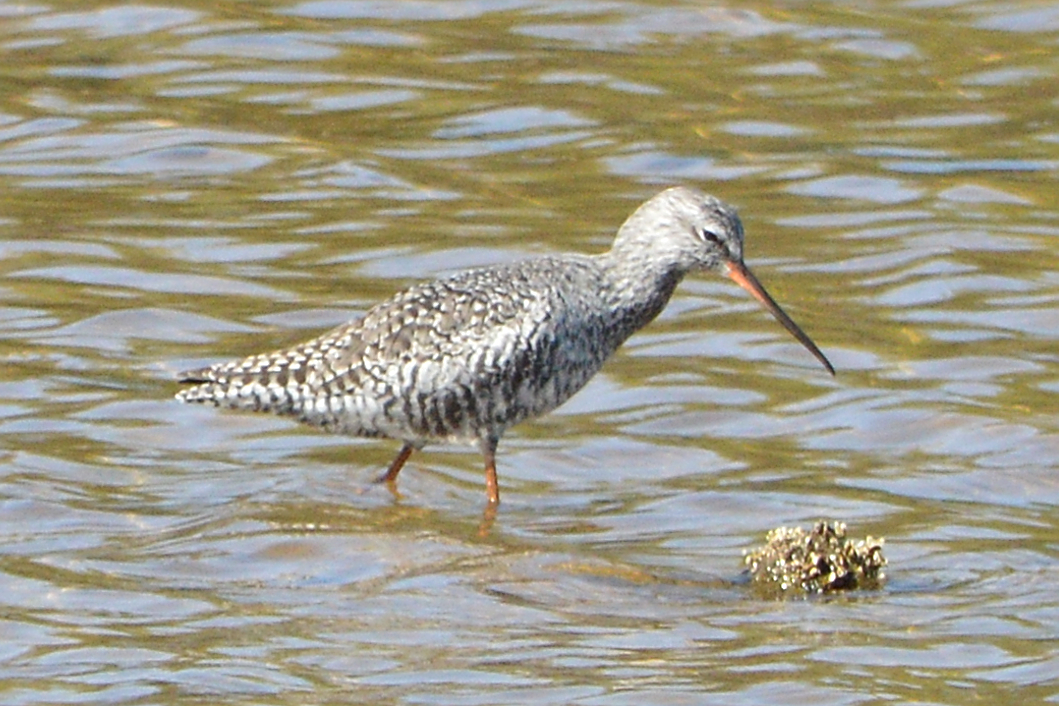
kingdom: Animalia
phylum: Chordata
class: Aves
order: Charadriiformes
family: Scolopacidae
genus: Tringa
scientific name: Tringa erythropus
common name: Spotted redshank
